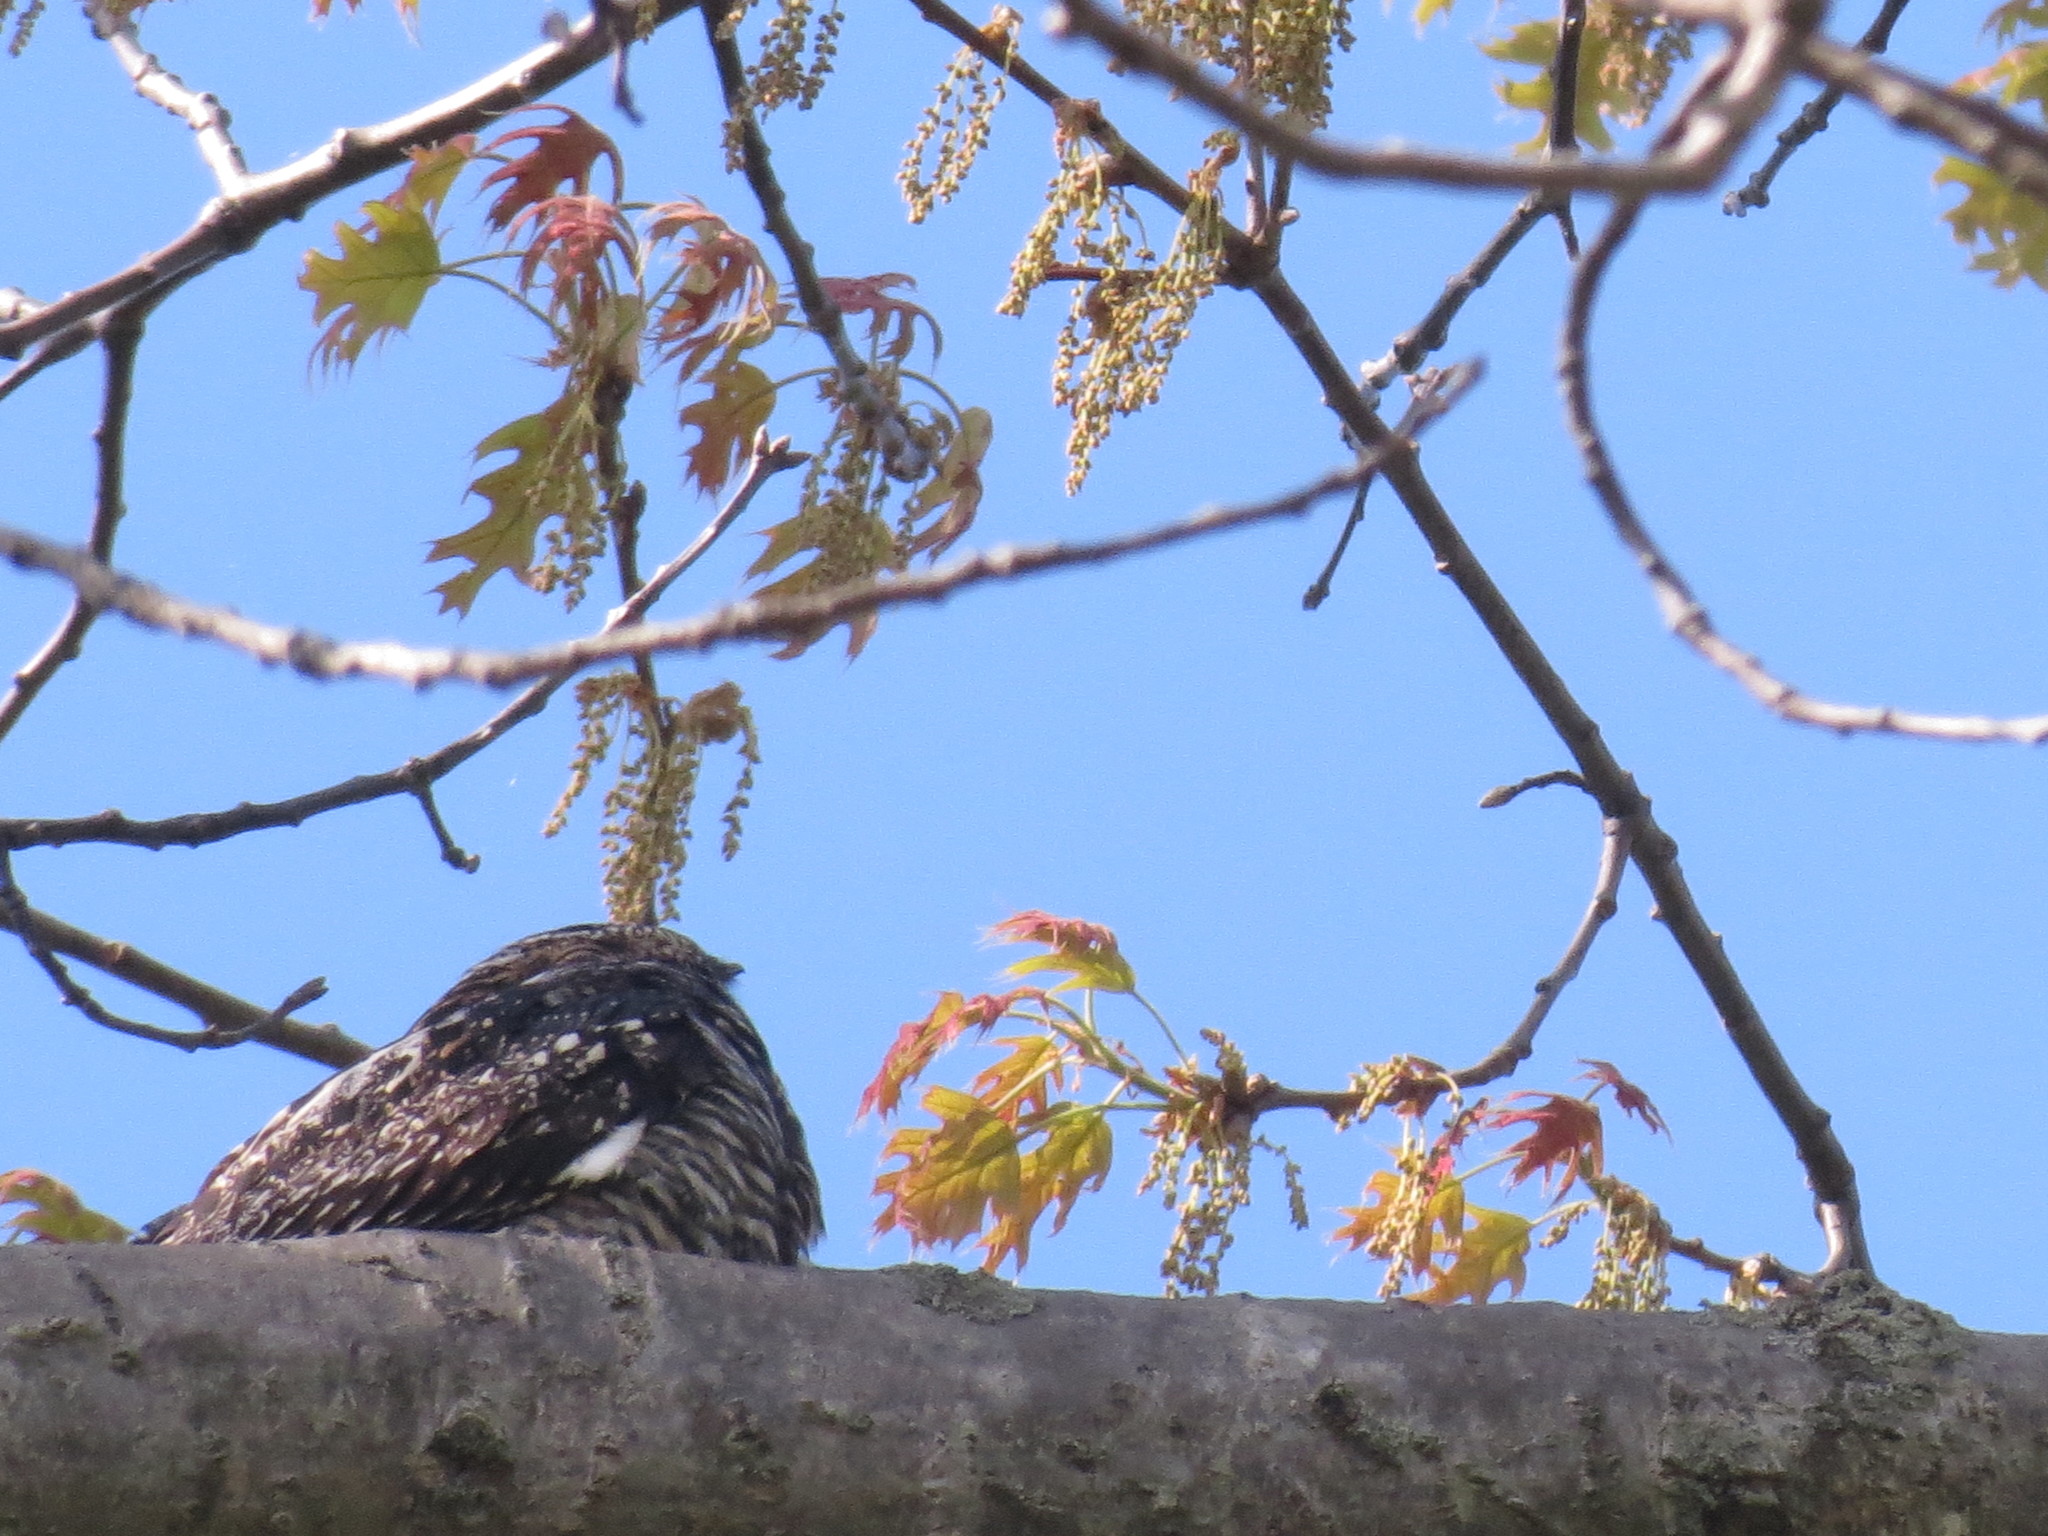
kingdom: Animalia
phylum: Chordata
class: Aves
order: Caprimulgiformes
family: Caprimulgidae
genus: Chordeiles
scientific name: Chordeiles minor
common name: Common nighthawk
